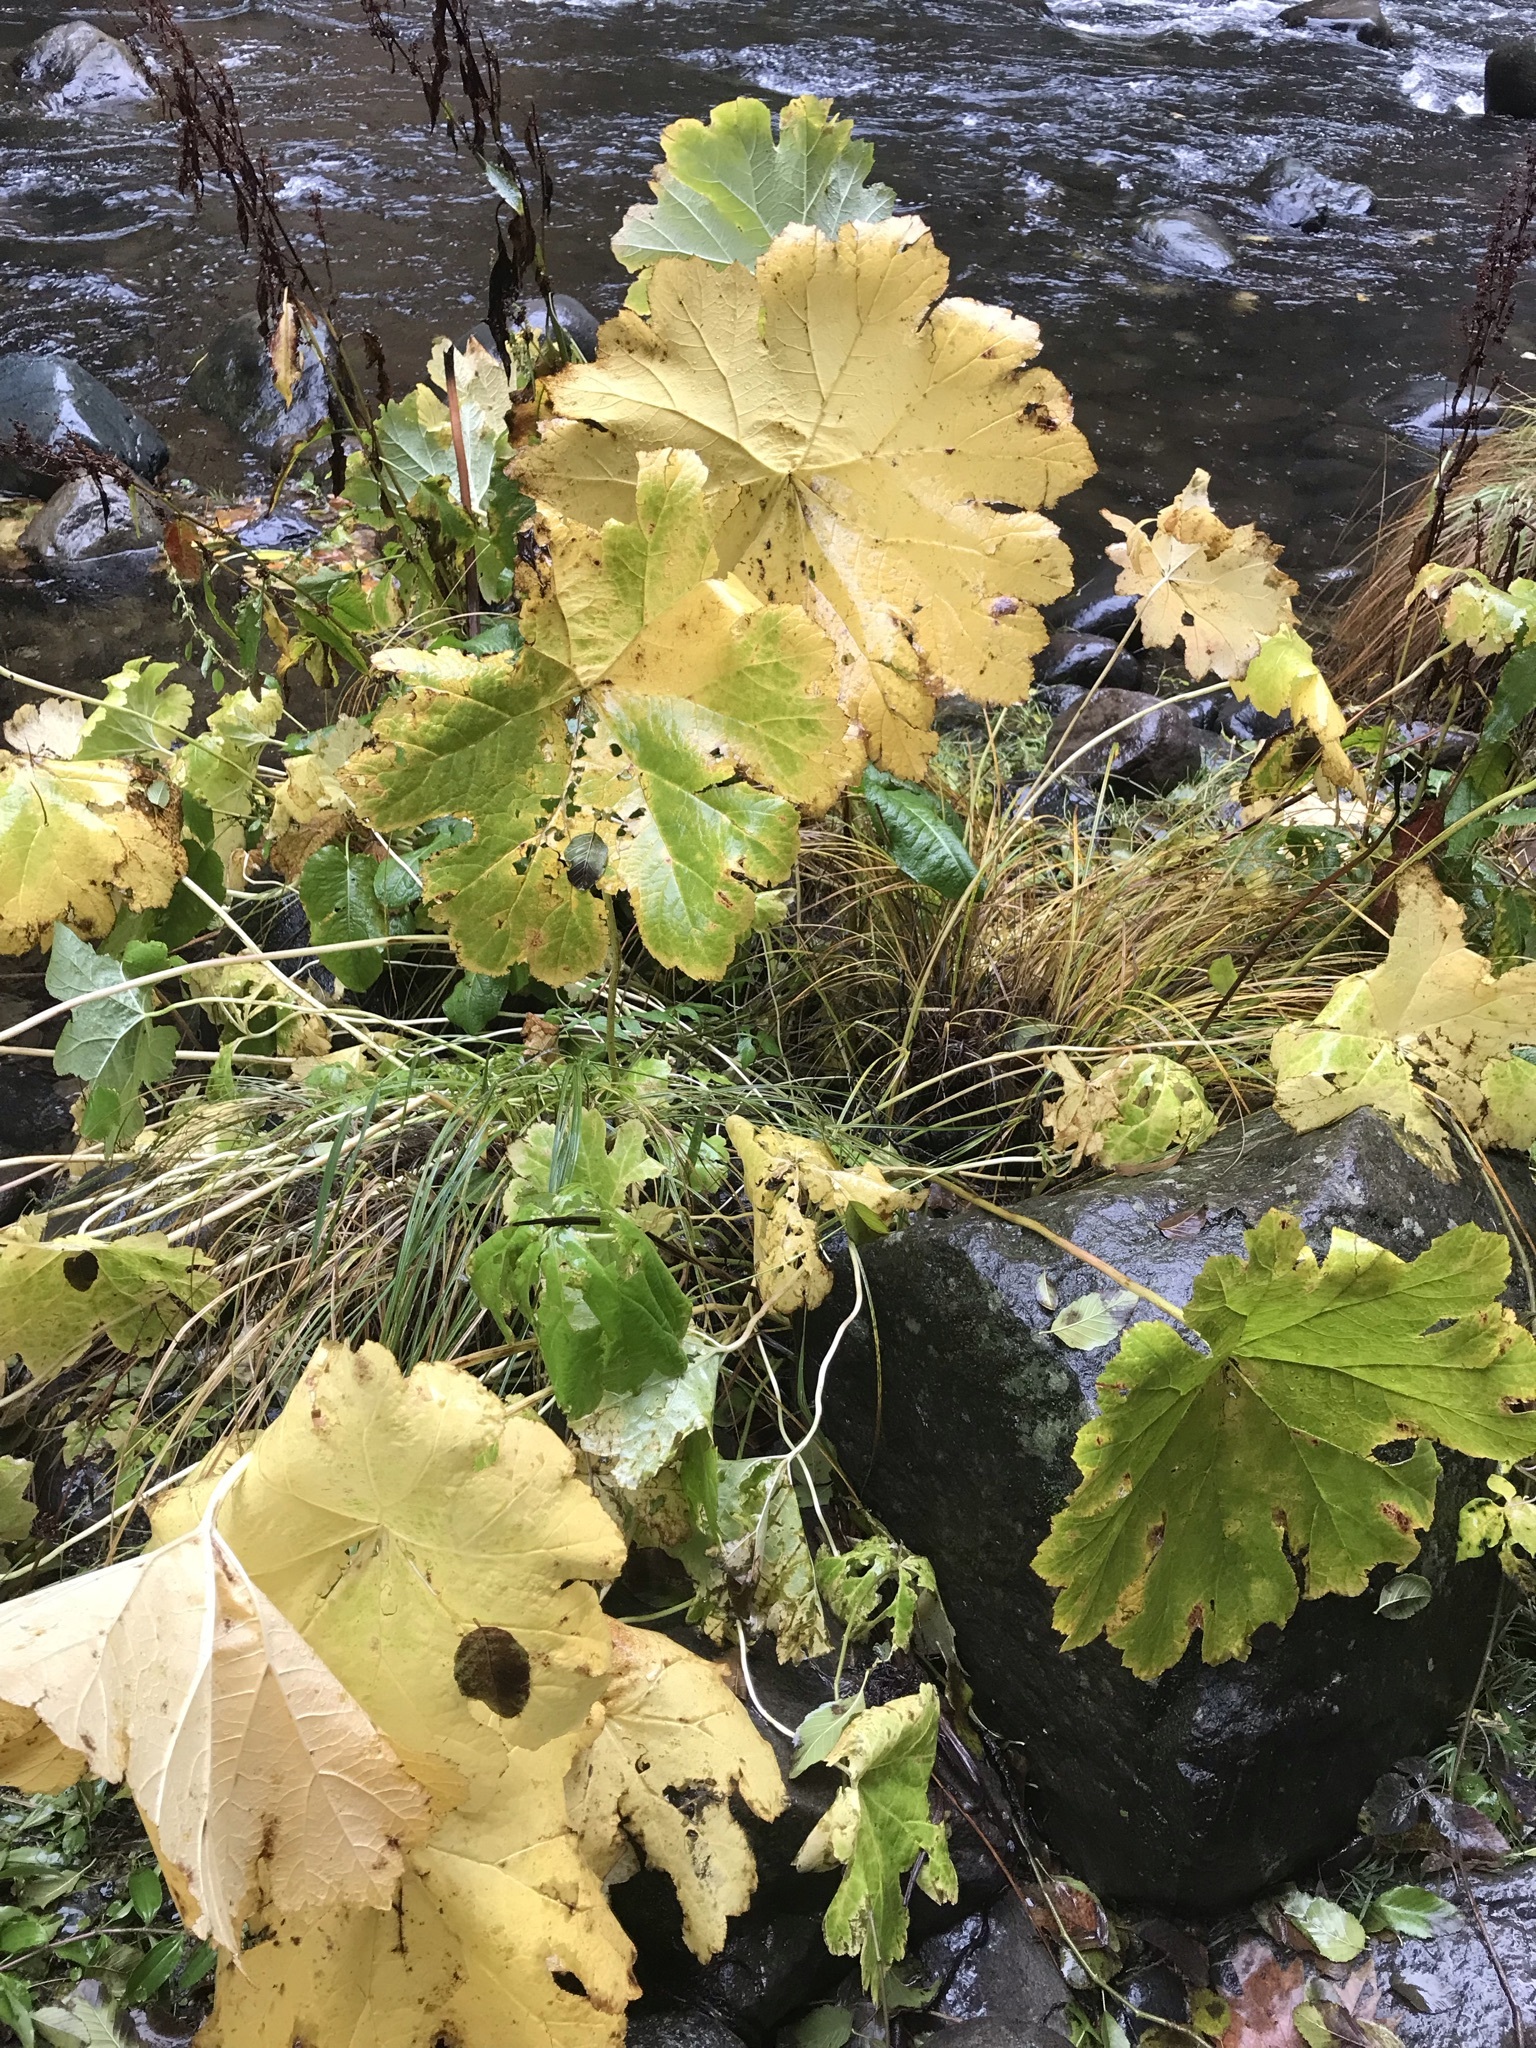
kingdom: Plantae
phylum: Tracheophyta
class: Magnoliopsida
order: Saxifragales
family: Saxifragaceae
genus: Darmera
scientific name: Darmera peltata
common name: Indian-rhubarb
